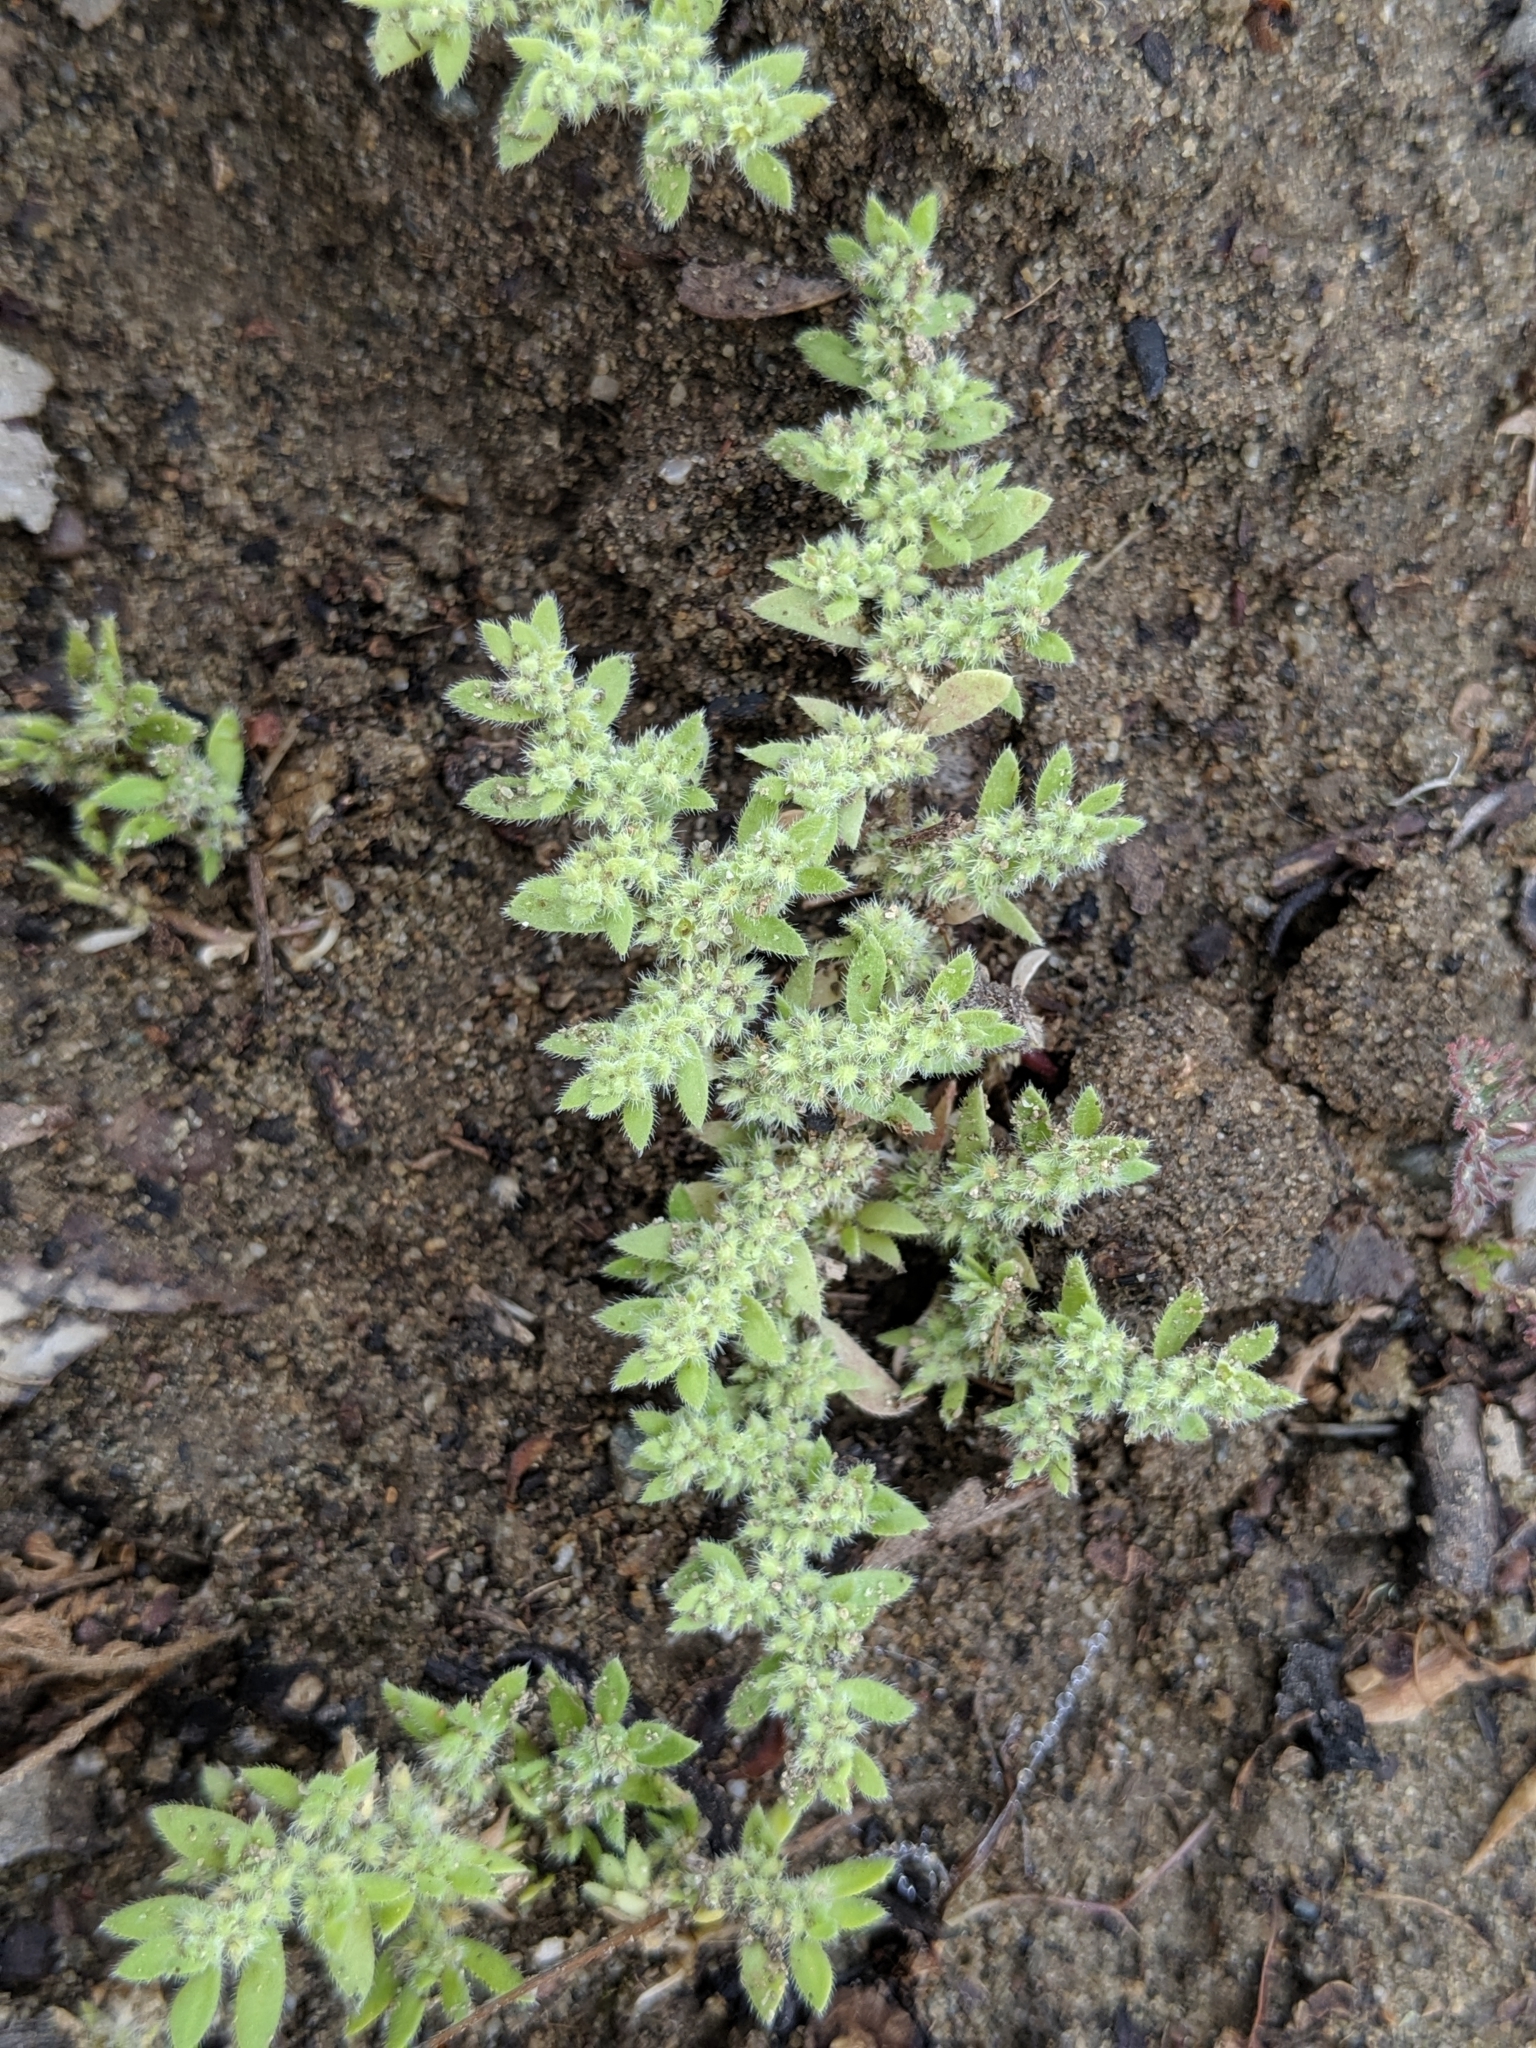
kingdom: Plantae
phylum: Tracheophyta
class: Magnoliopsida
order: Caryophyllales
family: Caryophyllaceae
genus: Herniaria
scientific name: Herniaria hirsuta
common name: Hairy rupturewort
